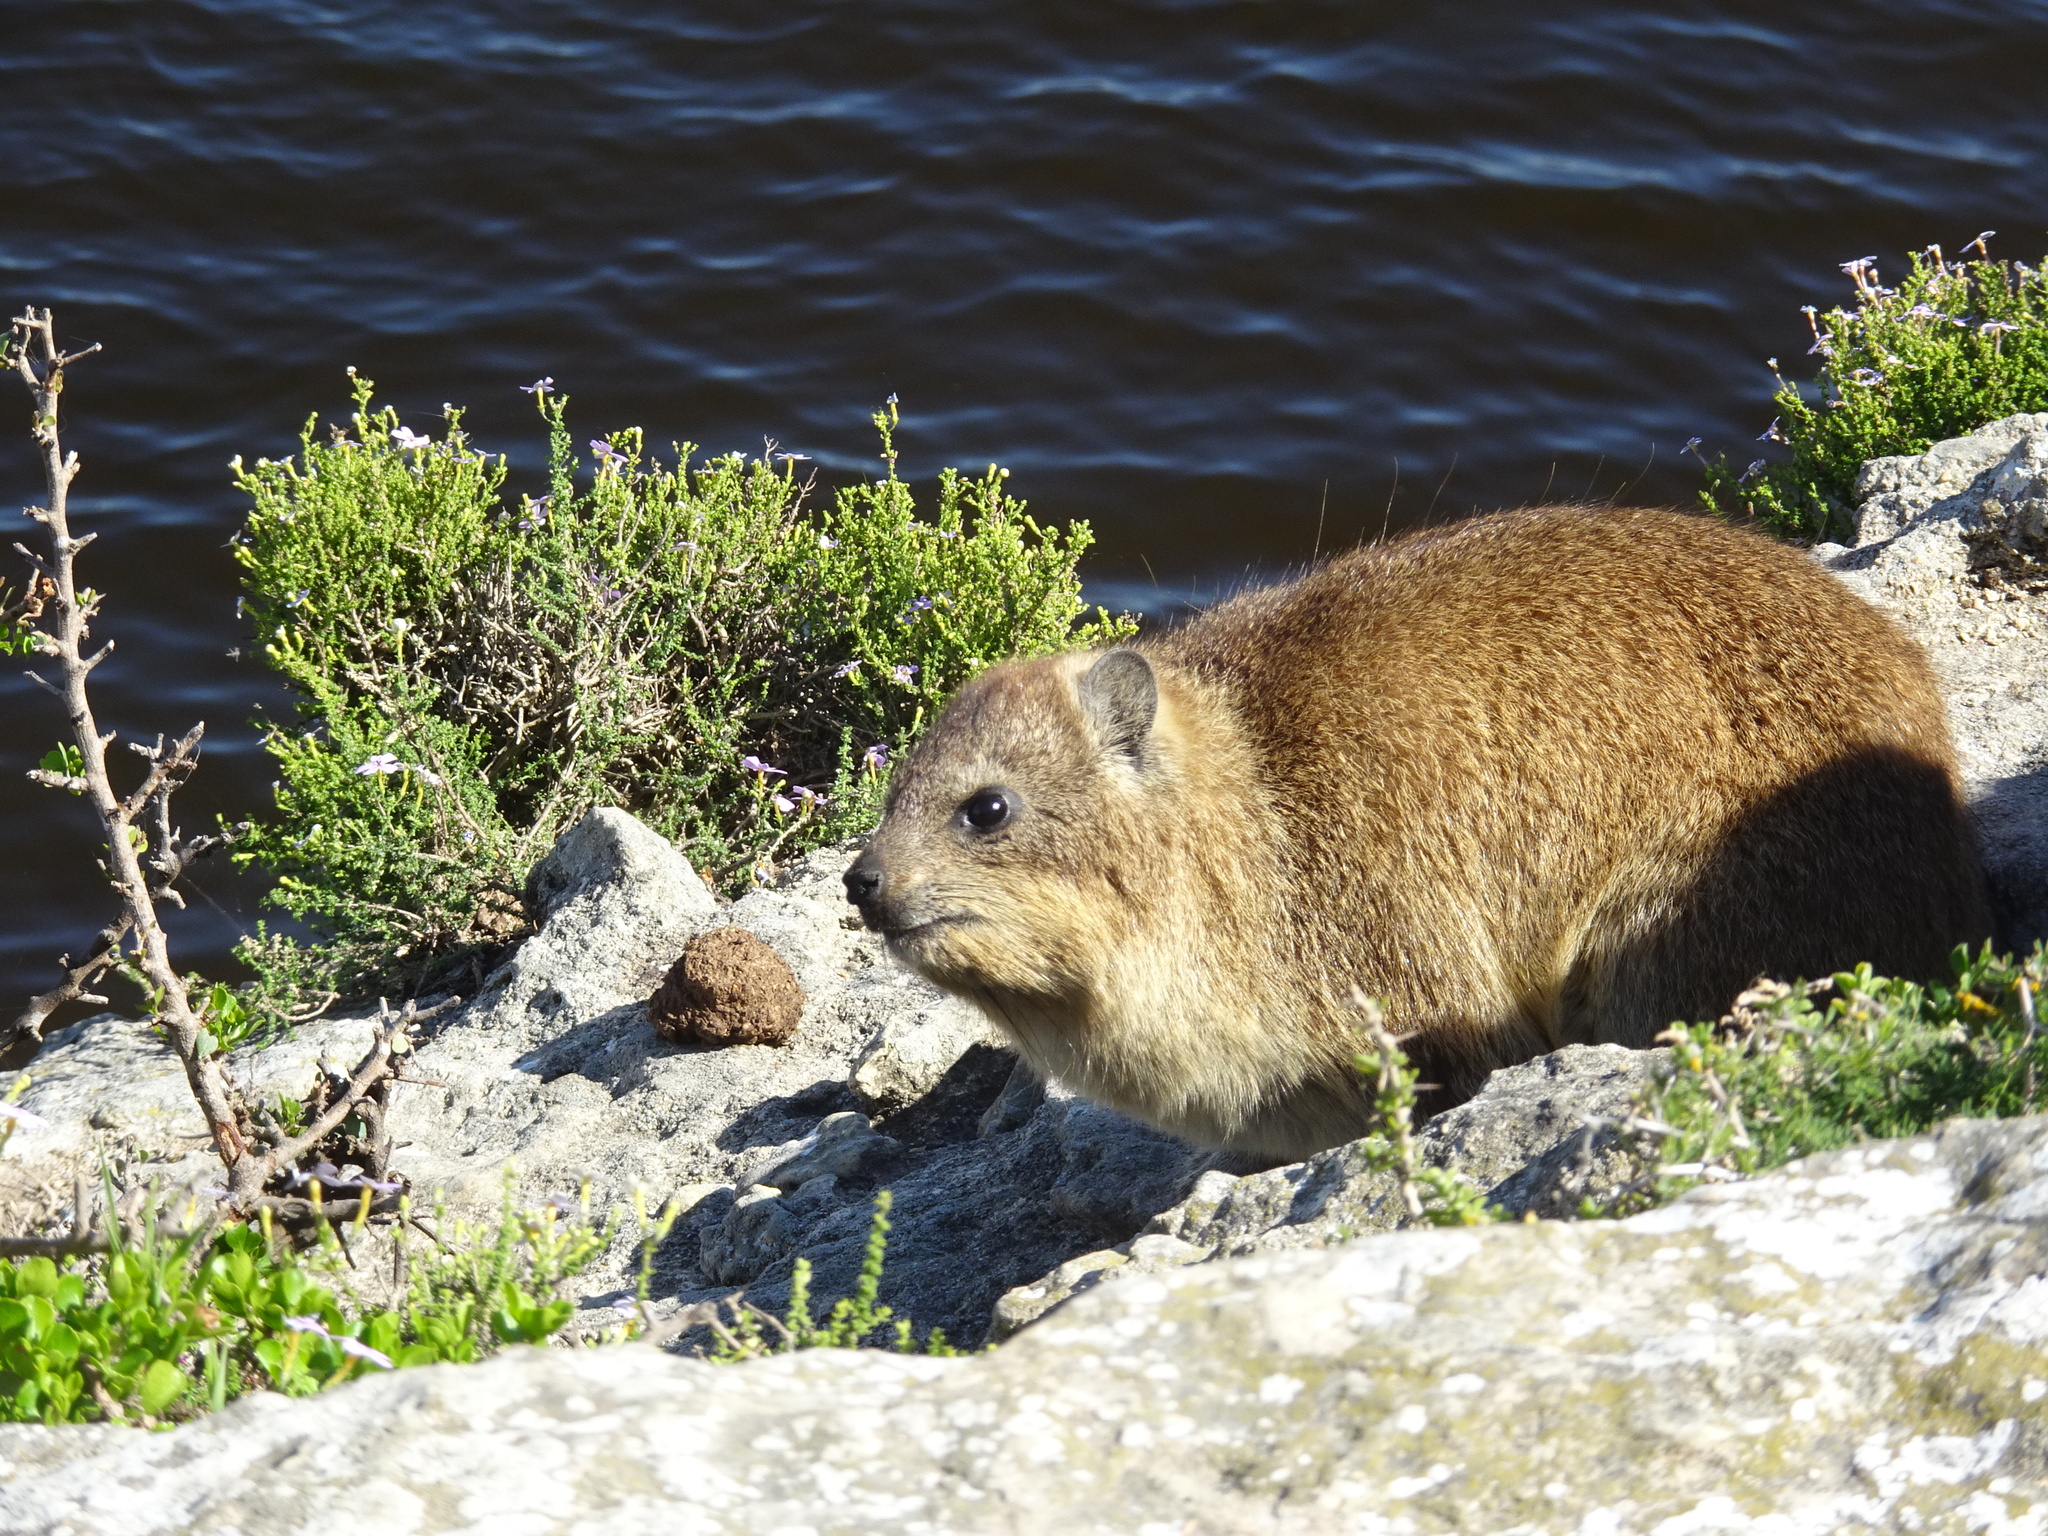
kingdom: Animalia
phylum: Chordata
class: Mammalia
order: Hyracoidea
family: Procaviidae
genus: Procavia
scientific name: Procavia capensis
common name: Rock hyrax
